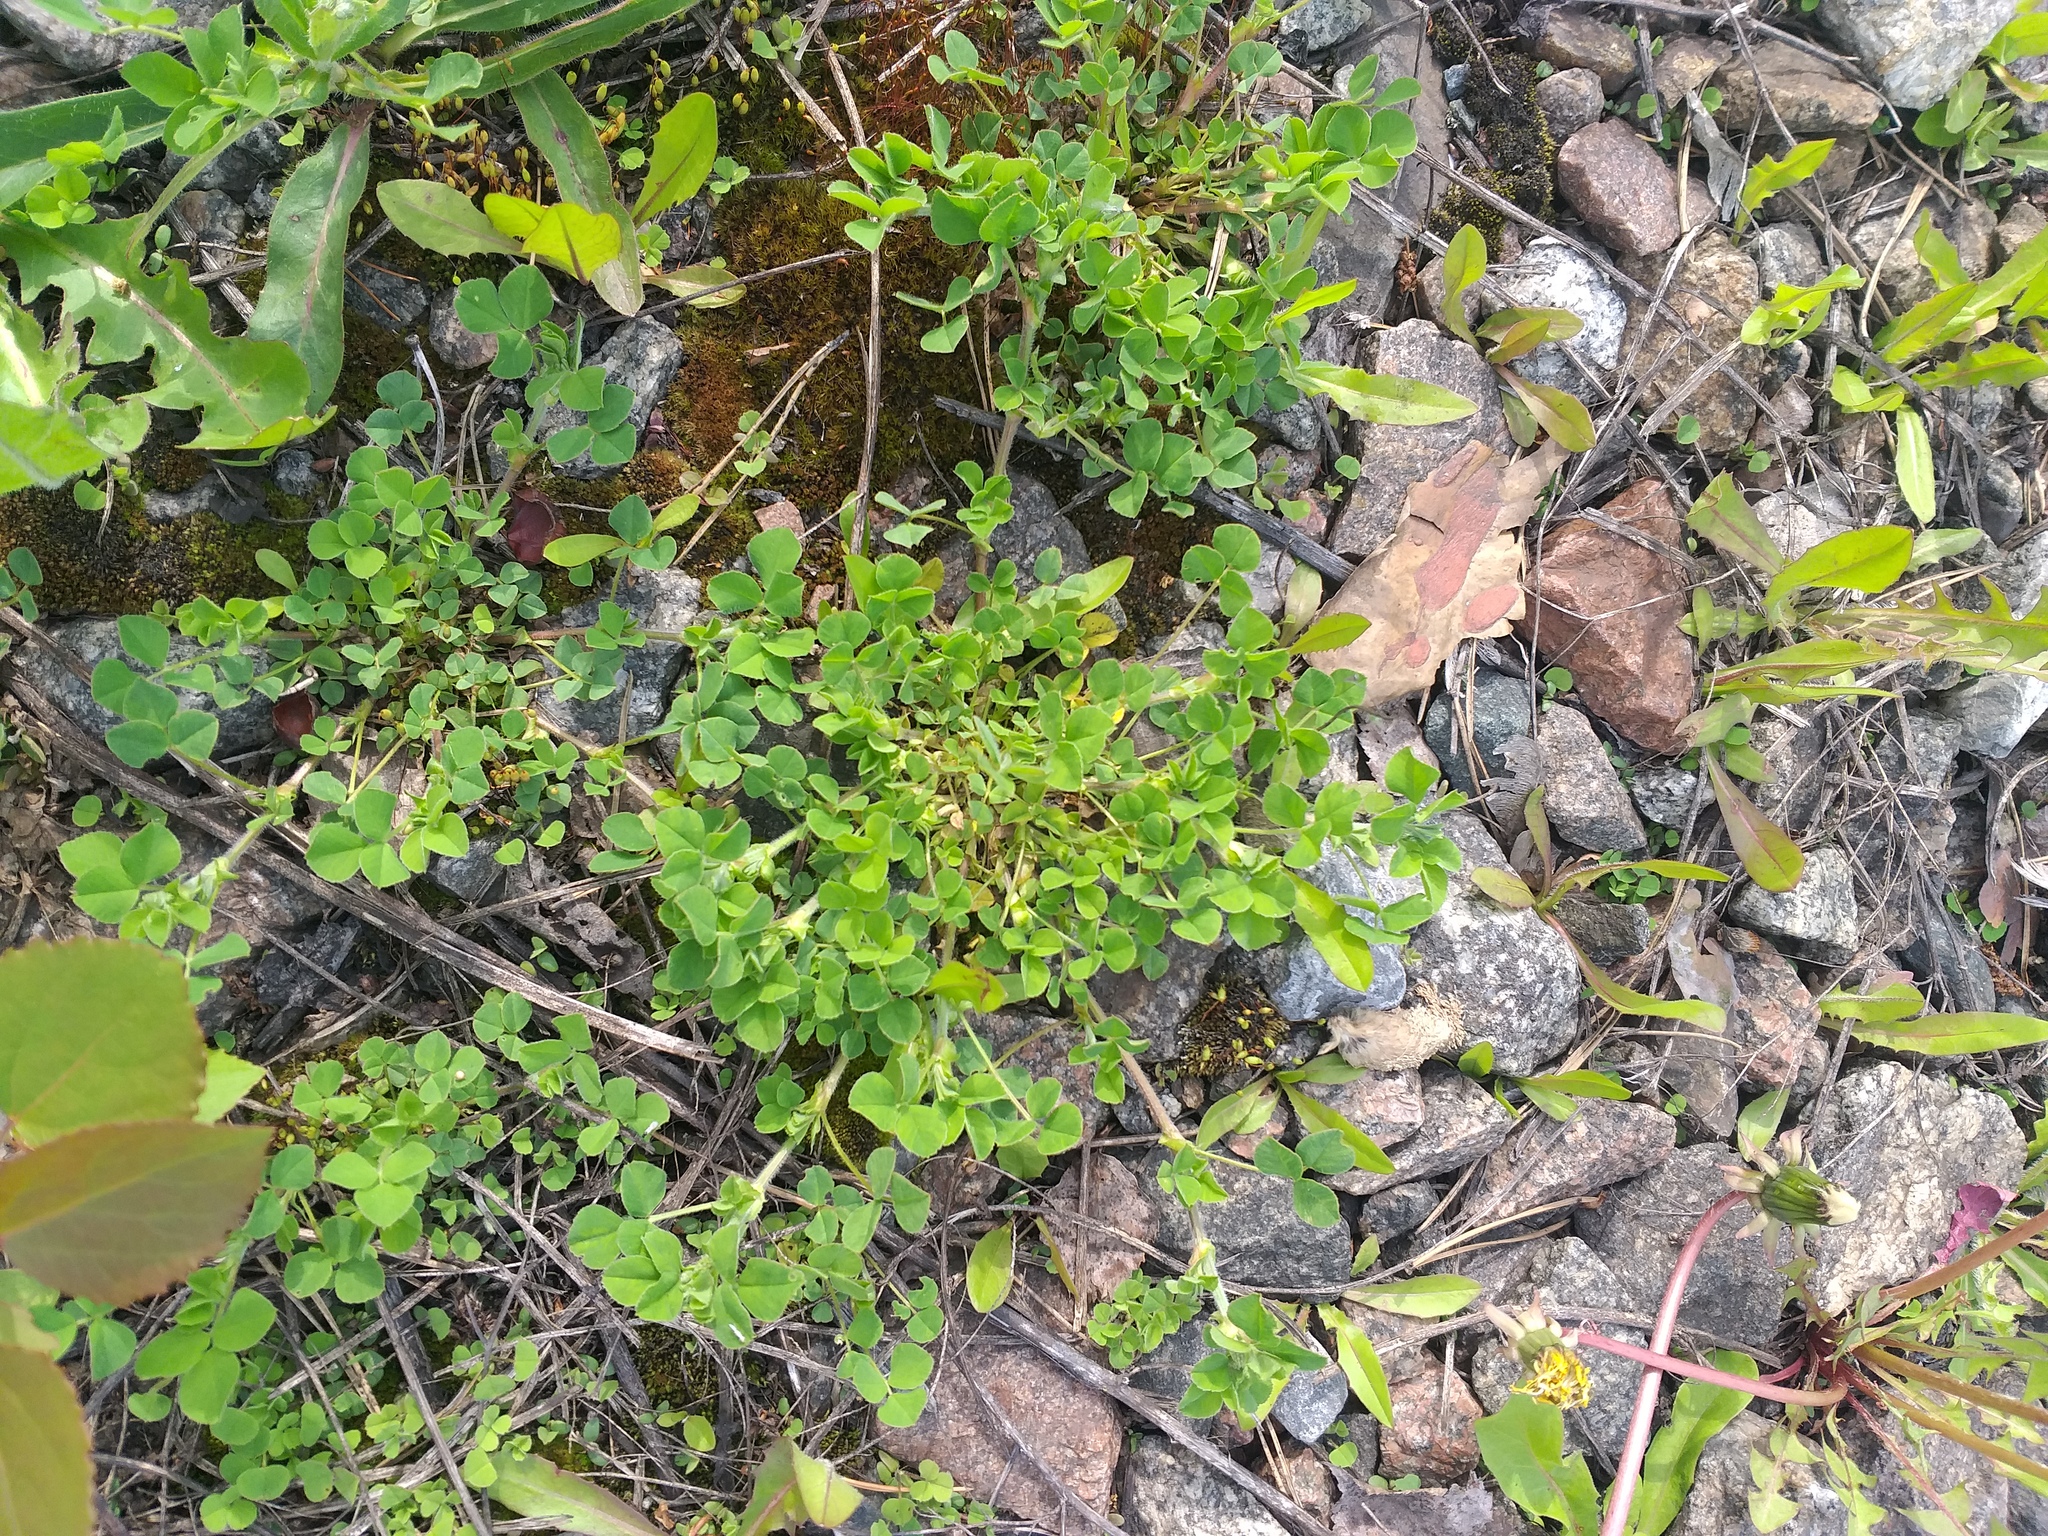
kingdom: Plantae
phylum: Tracheophyta
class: Magnoliopsida
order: Fabales
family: Fabaceae
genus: Medicago
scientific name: Medicago lupulina
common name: Black medick
